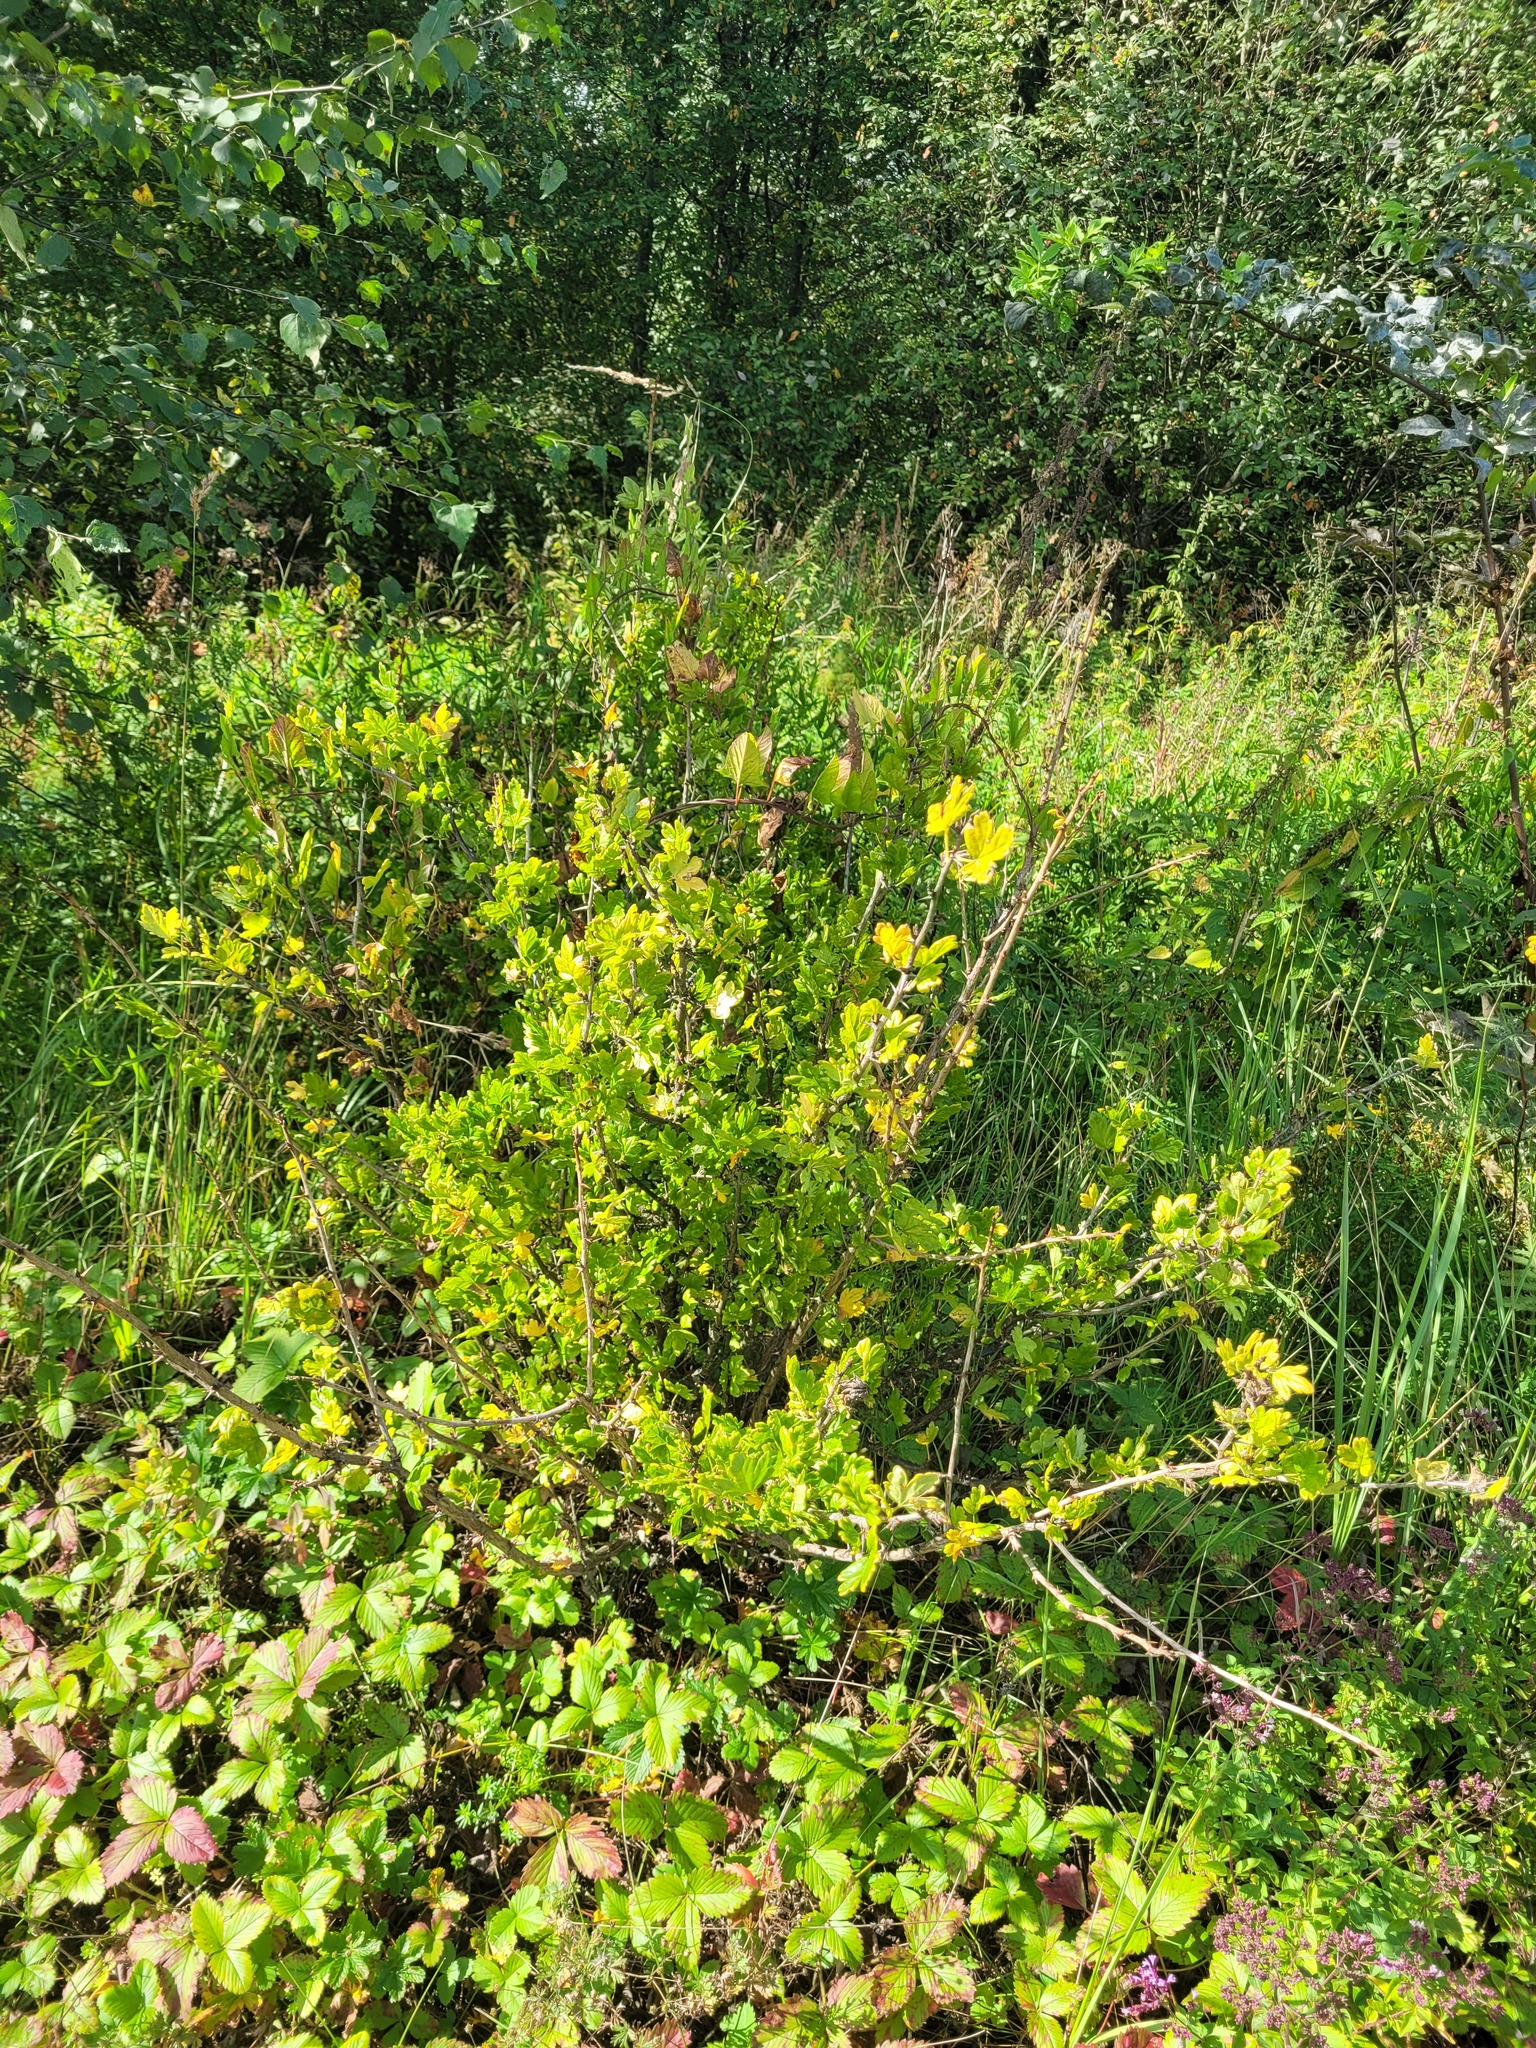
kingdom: Plantae
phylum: Tracheophyta
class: Magnoliopsida
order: Saxifragales
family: Grossulariaceae
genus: Ribes
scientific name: Ribes uva-crispa
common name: Gooseberry
